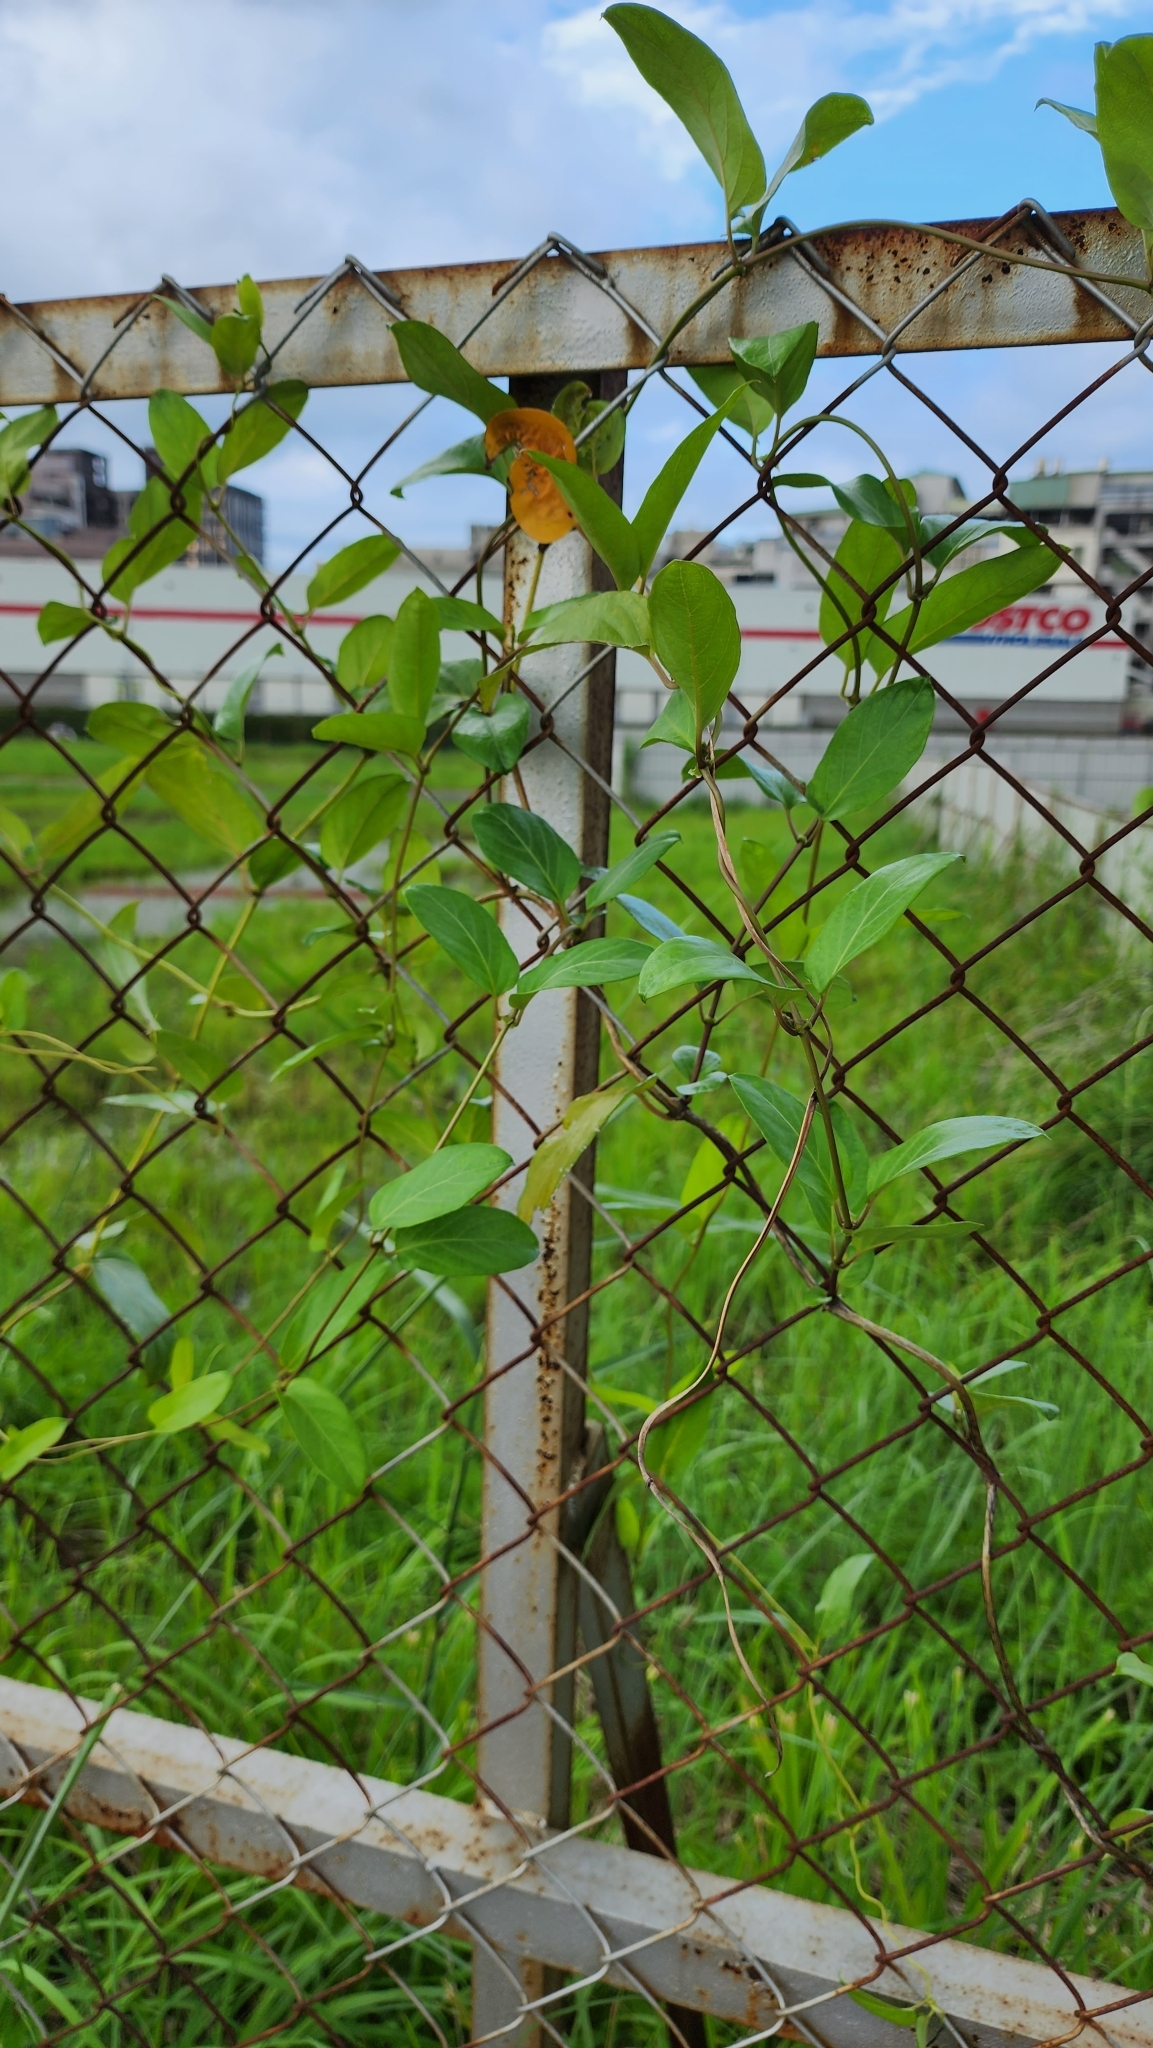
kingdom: Plantae
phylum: Tracheophyta
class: Magnoliopsida
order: Gentianales
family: Rubiaceae
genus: Paederia
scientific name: Paederia foetida
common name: Stinkvine
